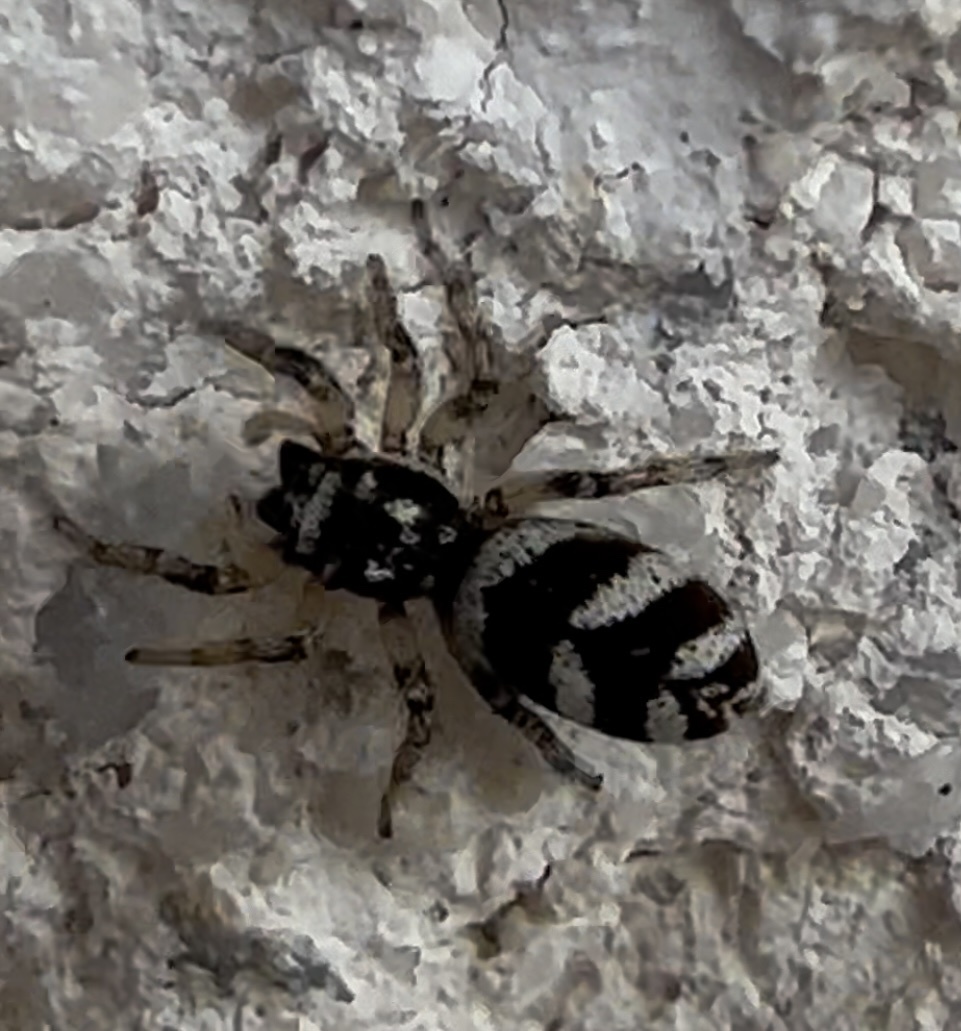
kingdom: Animalia
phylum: Arthropoda
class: Arachnida
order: Araneae
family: Salticidae
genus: Salticus
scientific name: Salticus scenicus
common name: Zebra jumper
